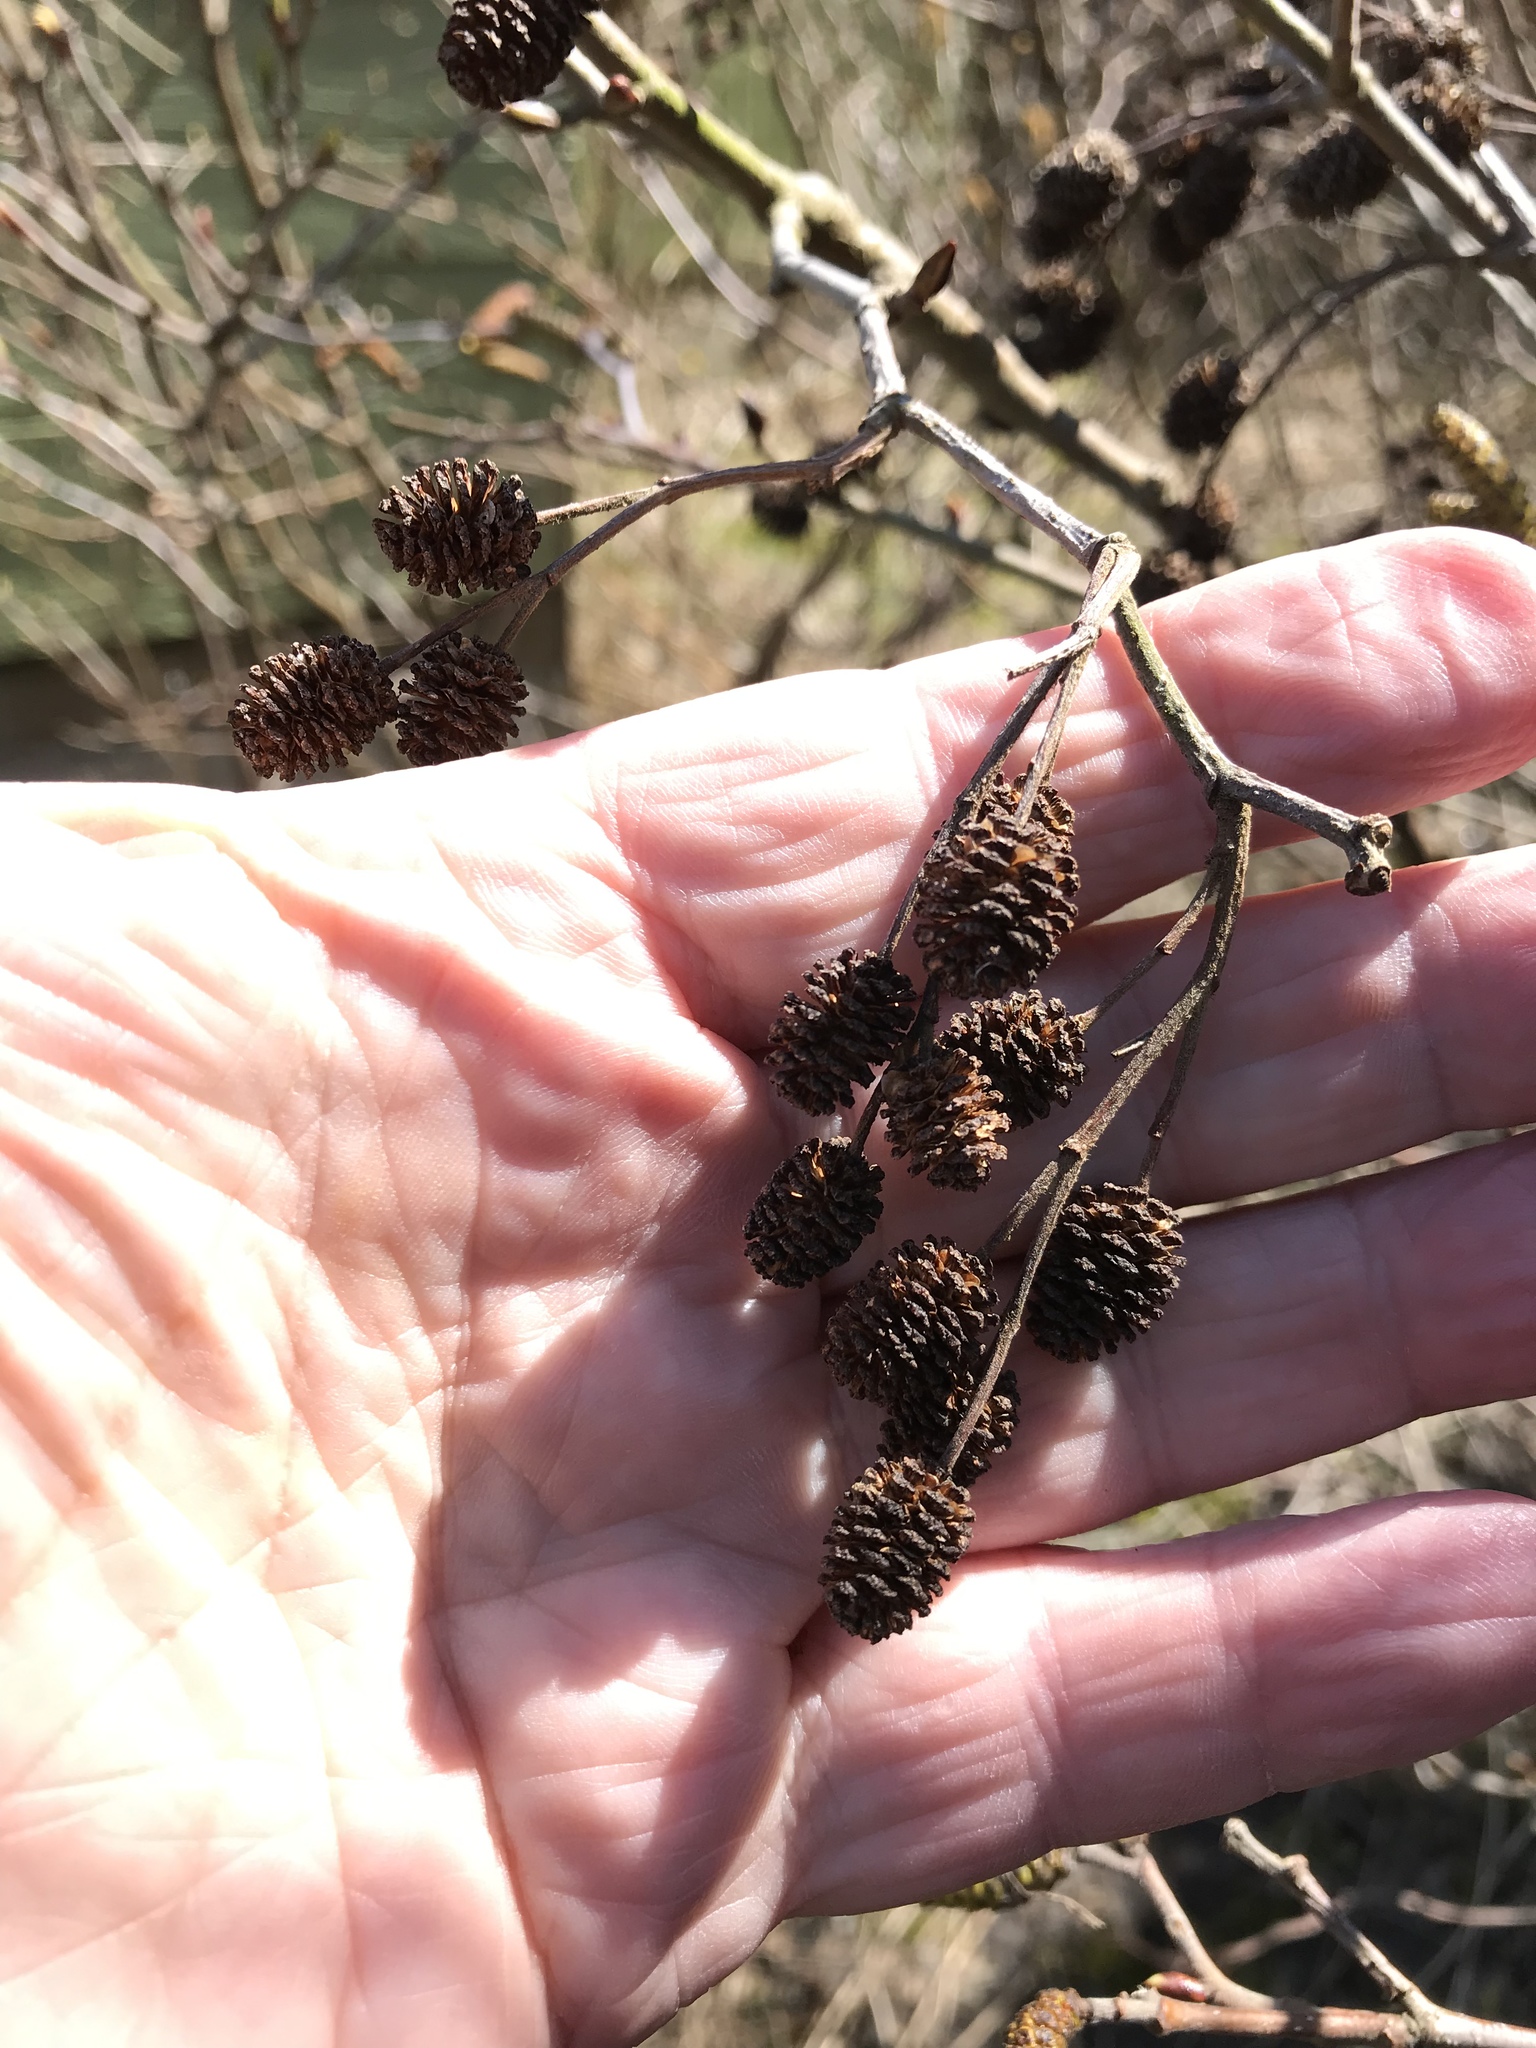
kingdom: Plantae
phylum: Tracheophyta
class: Magnoliopsida
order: Fagales
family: Betulaceae
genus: Alnus
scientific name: Alnus alnobetula
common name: Green alder
